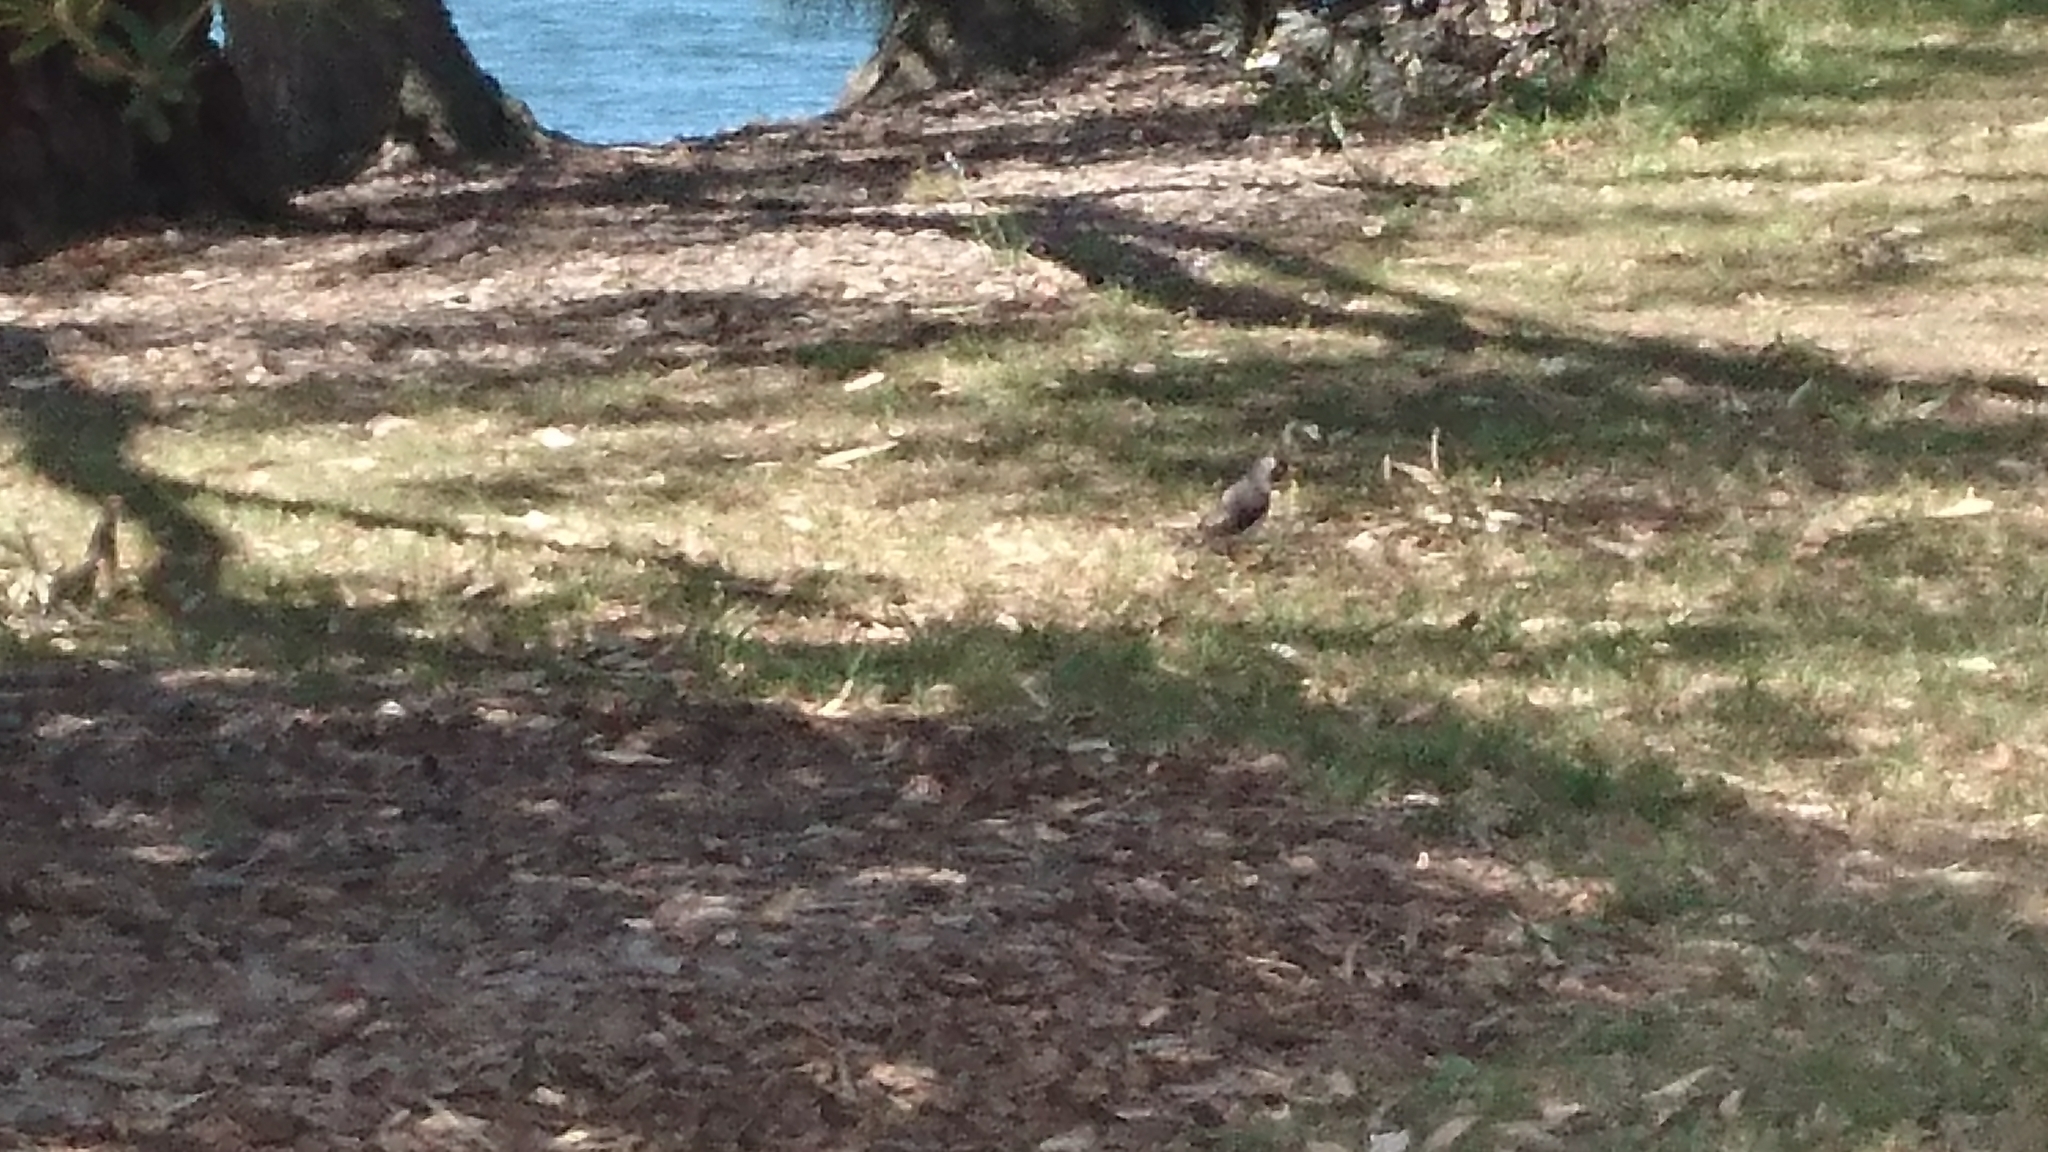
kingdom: Animalia
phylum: Chordata
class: Aves
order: Passeriformes
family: Meliphagidae
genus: Manorina
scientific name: Manorina melanocephala
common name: Noisy miner
